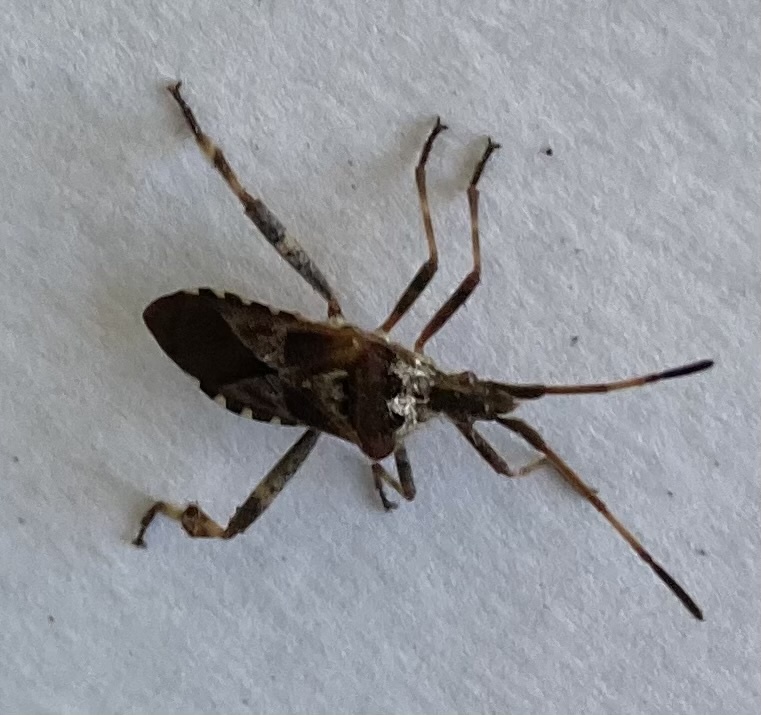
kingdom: Animalia
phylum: Arthropoda
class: Insecta
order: Hemiptera
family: Coreidae
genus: Leptoglossus
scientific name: Leptoglossus occidentalis
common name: Western conifer-seed bug
